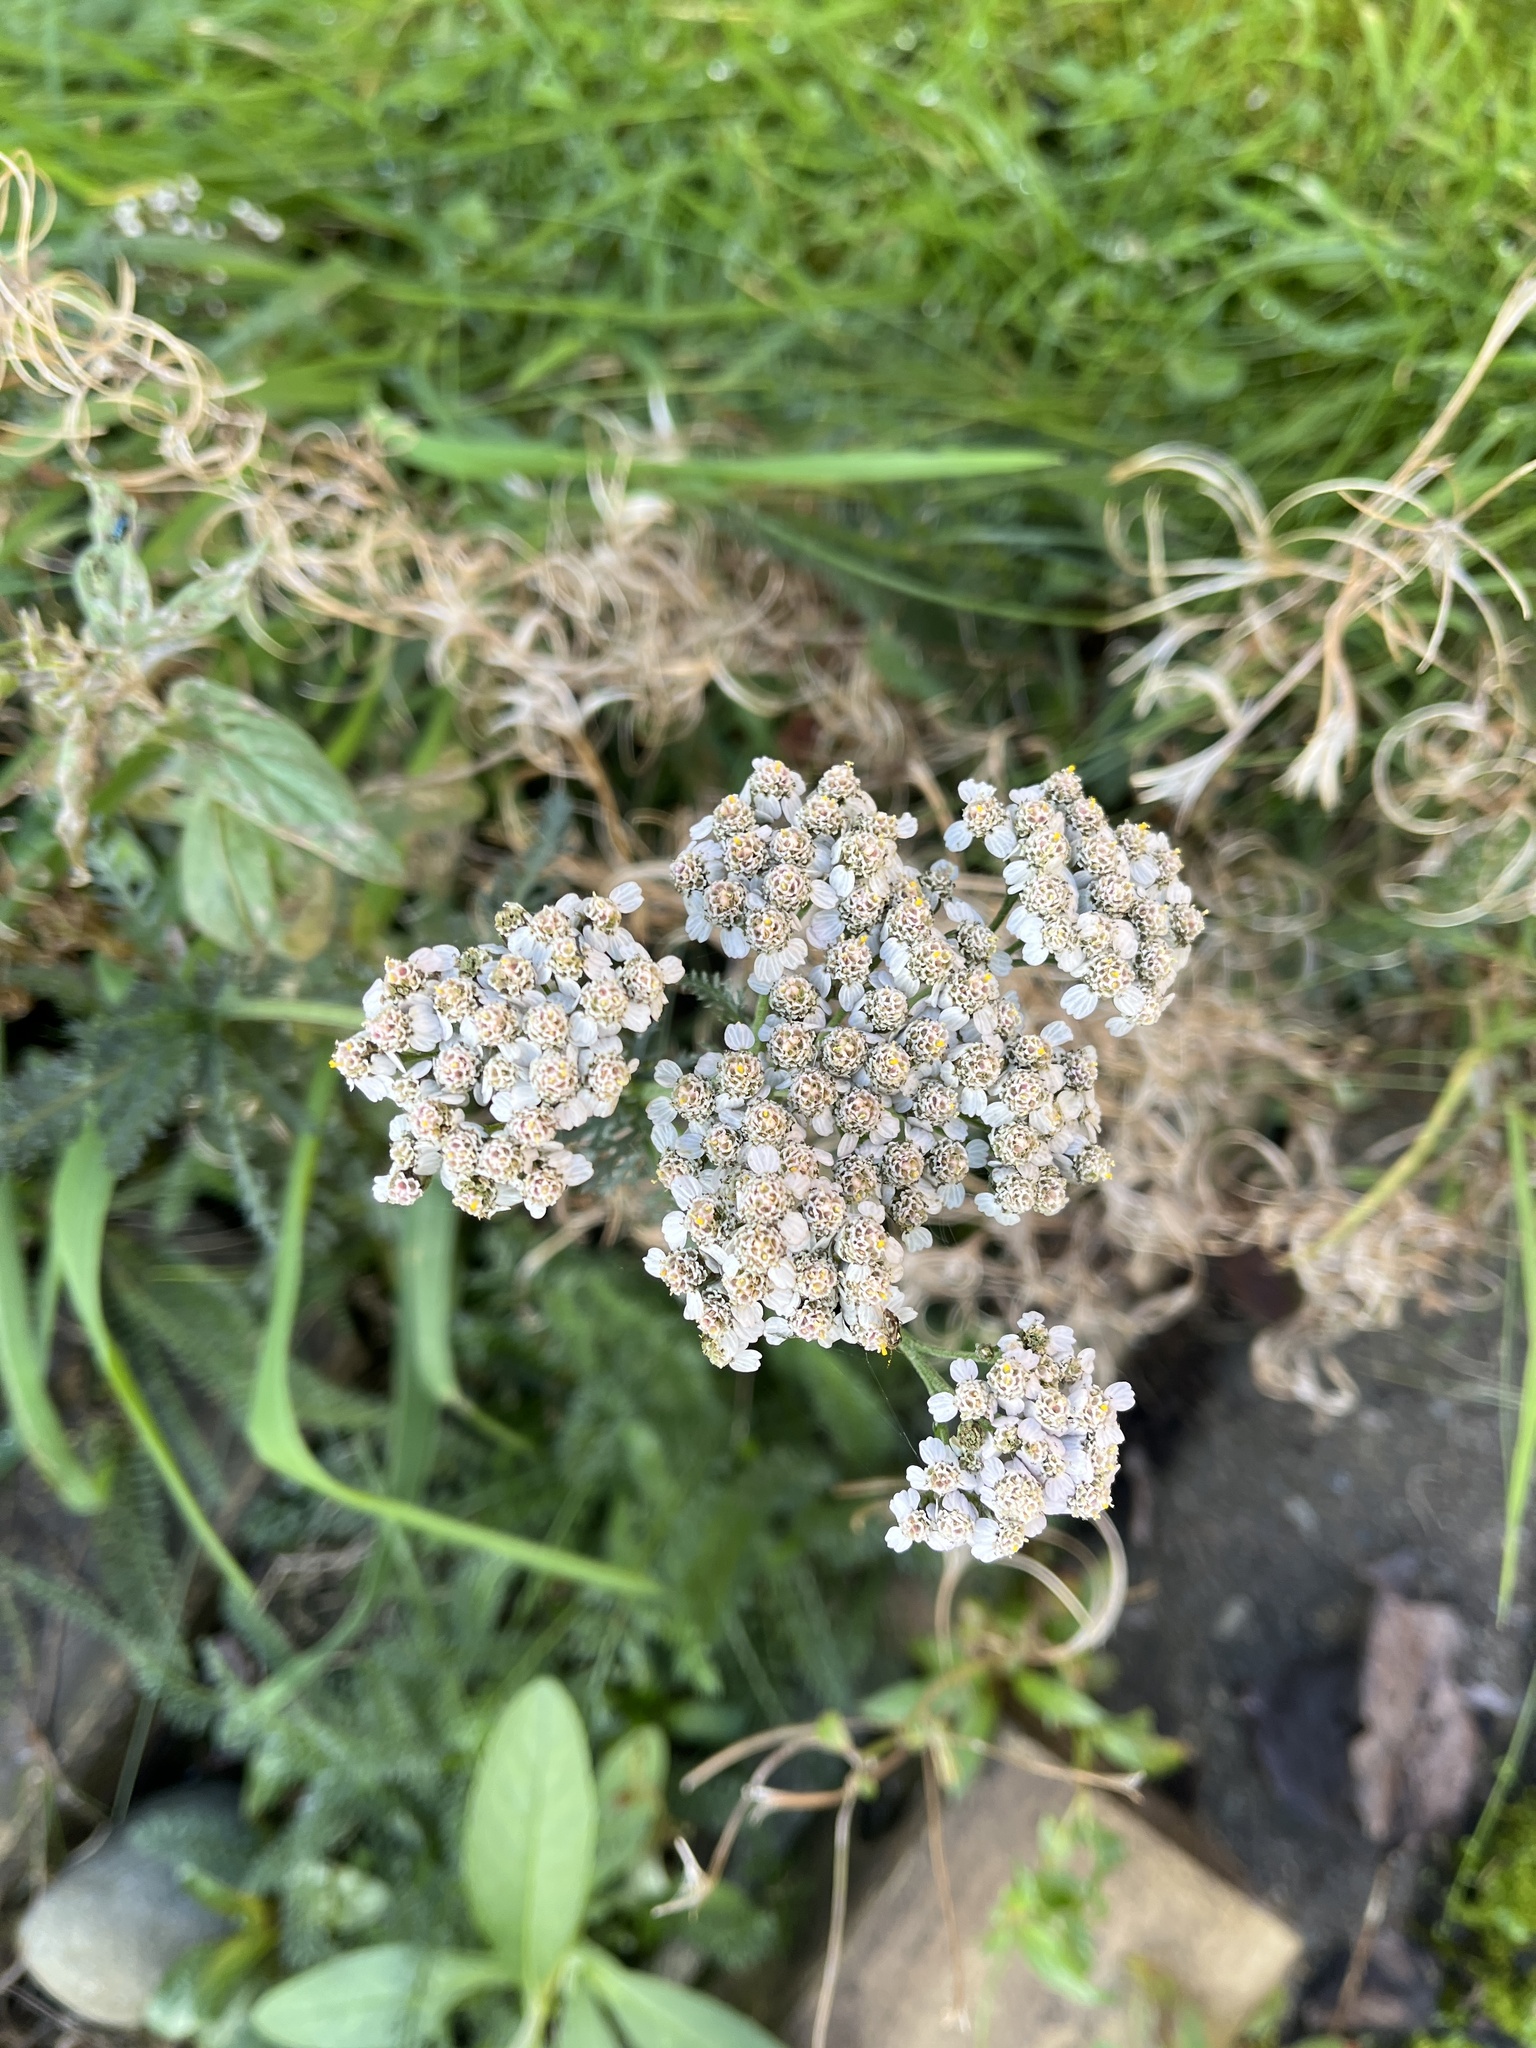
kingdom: Plantae
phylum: Tracheophyta
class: Magnoliopsida
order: Asterales
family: Asteraceae
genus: Achillea
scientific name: Achillea millefolium
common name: Yarrow
